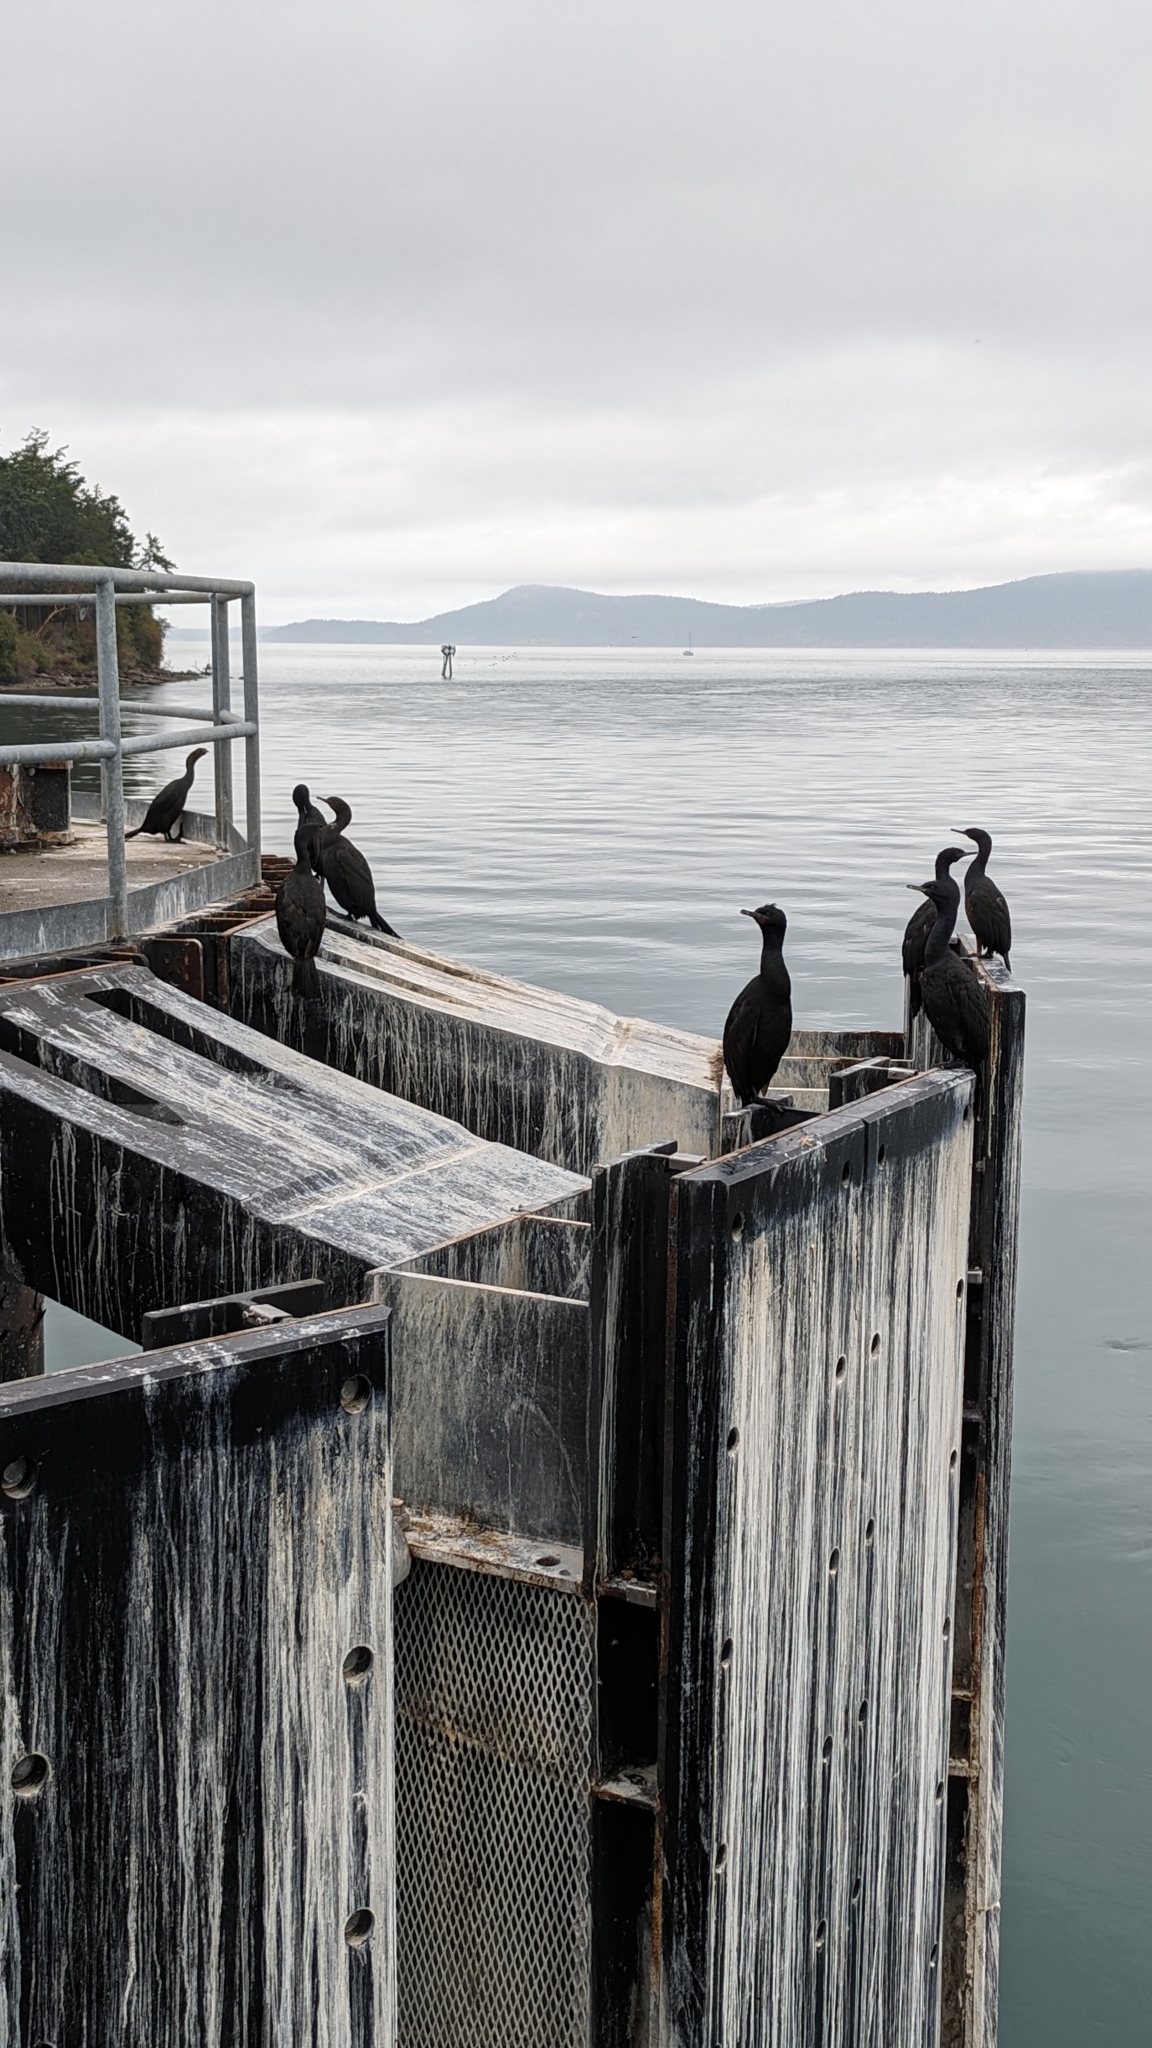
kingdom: Animalia
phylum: Chordata
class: Aves
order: Suliformes
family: Phalacrocoracidae
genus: Phalacrocorax
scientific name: Phalacrocorax pelagicus
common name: Pelagic cormorant
